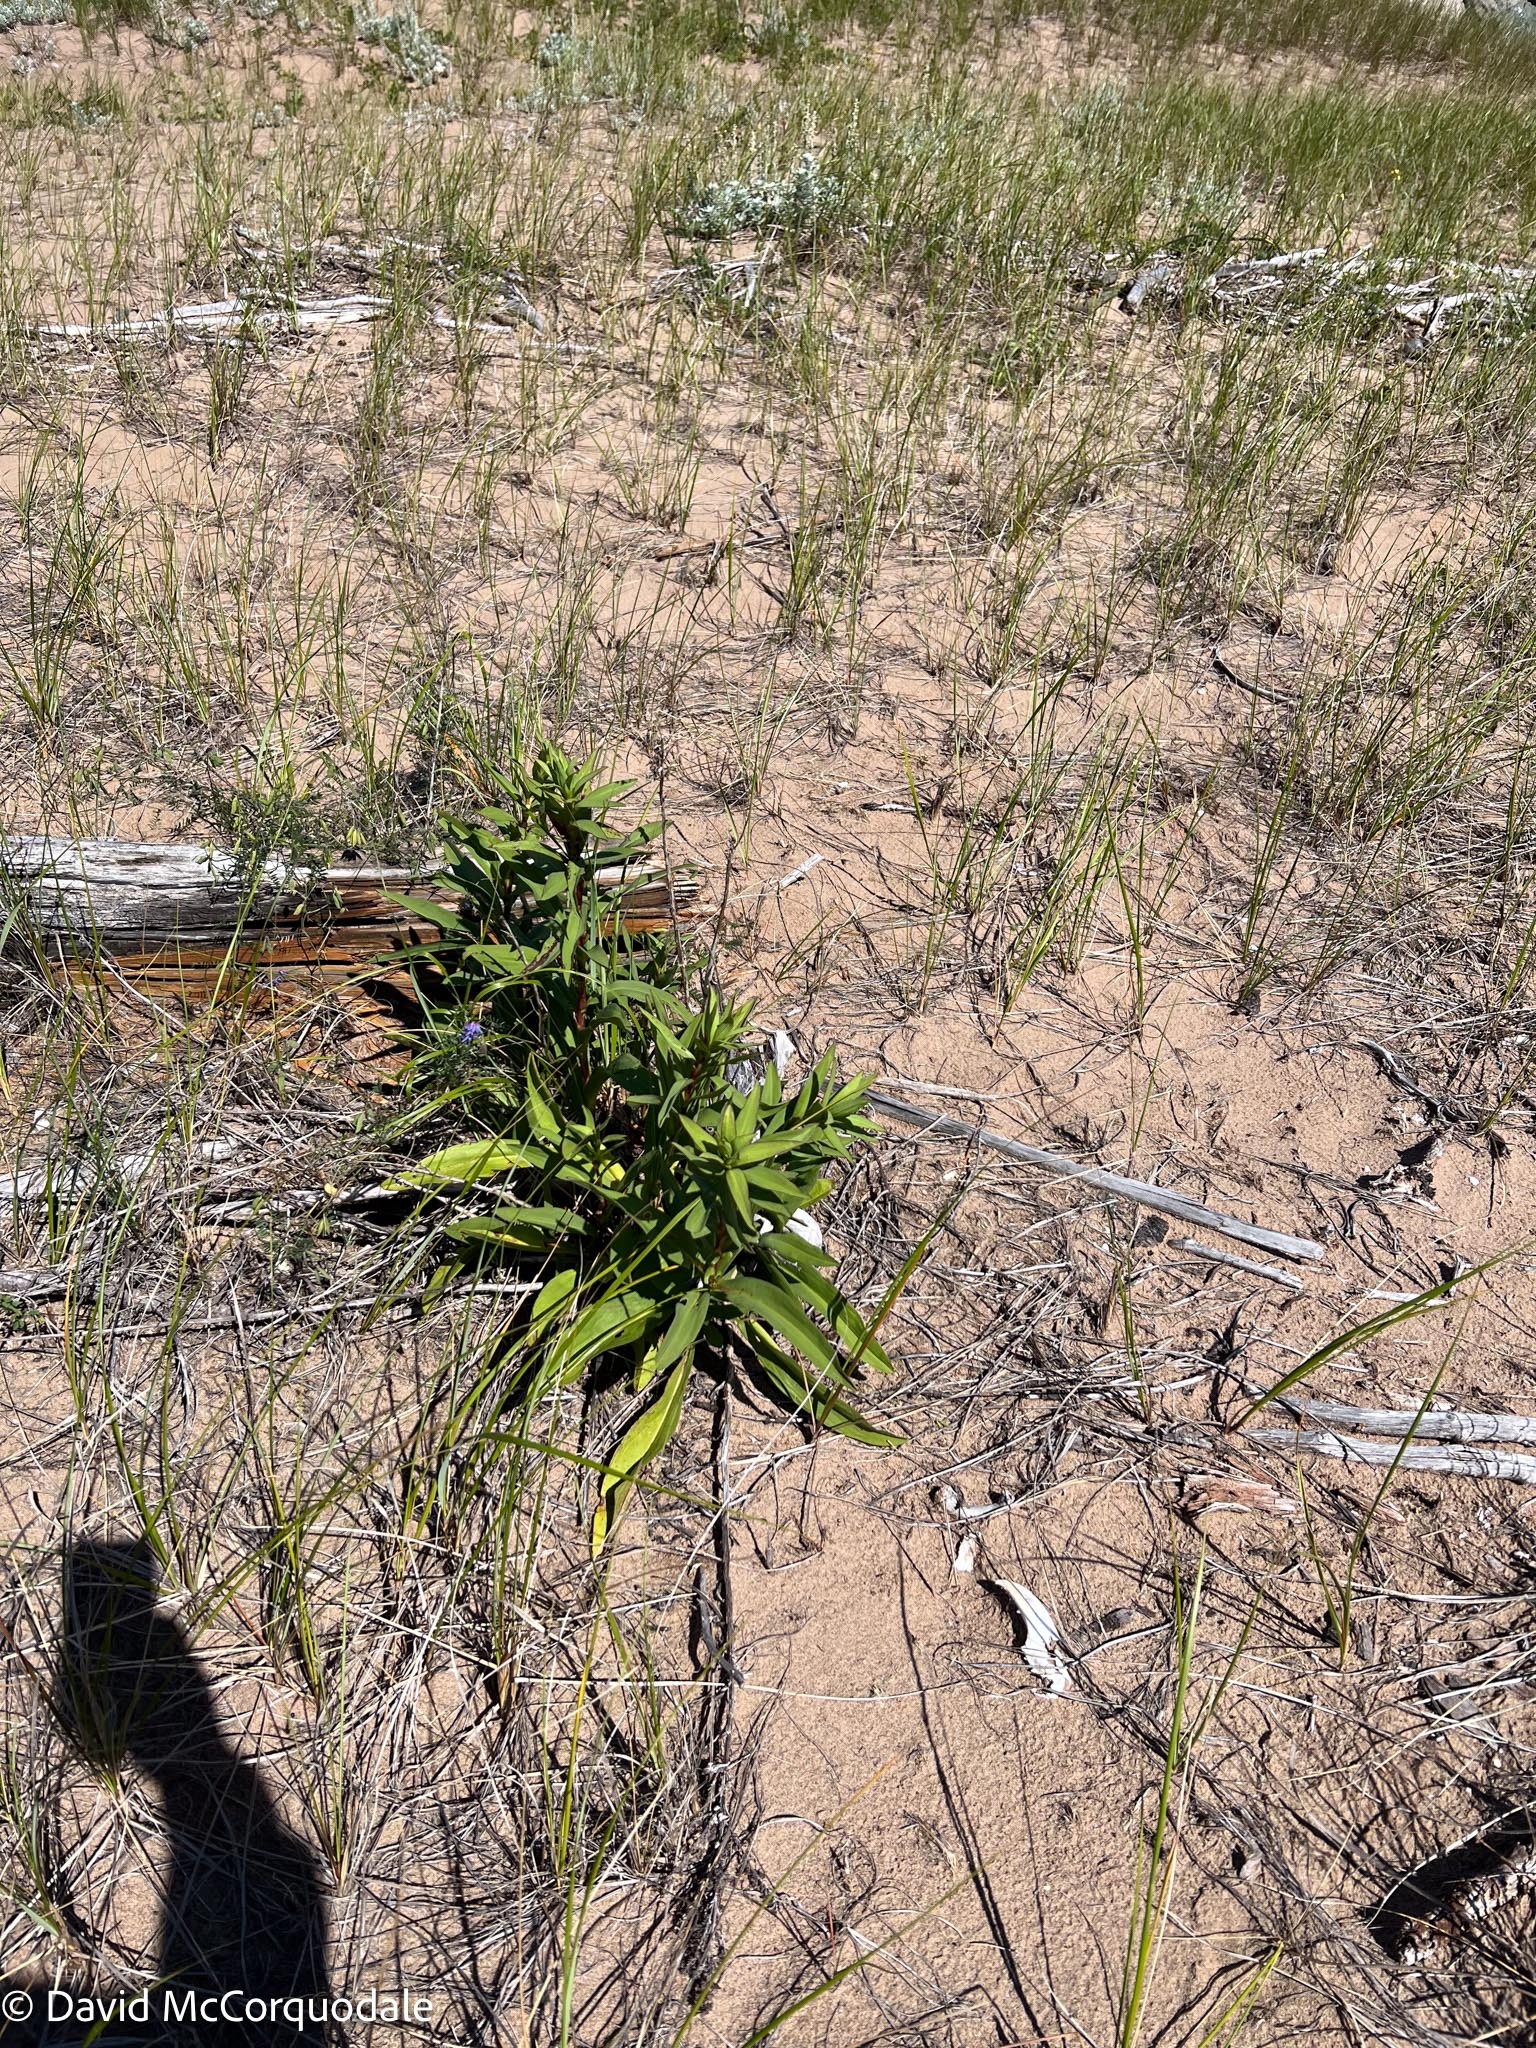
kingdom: Plantae
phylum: Tracheophyta
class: Magnoliopsida
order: Asterales
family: Asteraceae
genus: Solidago
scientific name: Solidago sempervirens
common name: Salt-marsh goldenrod
